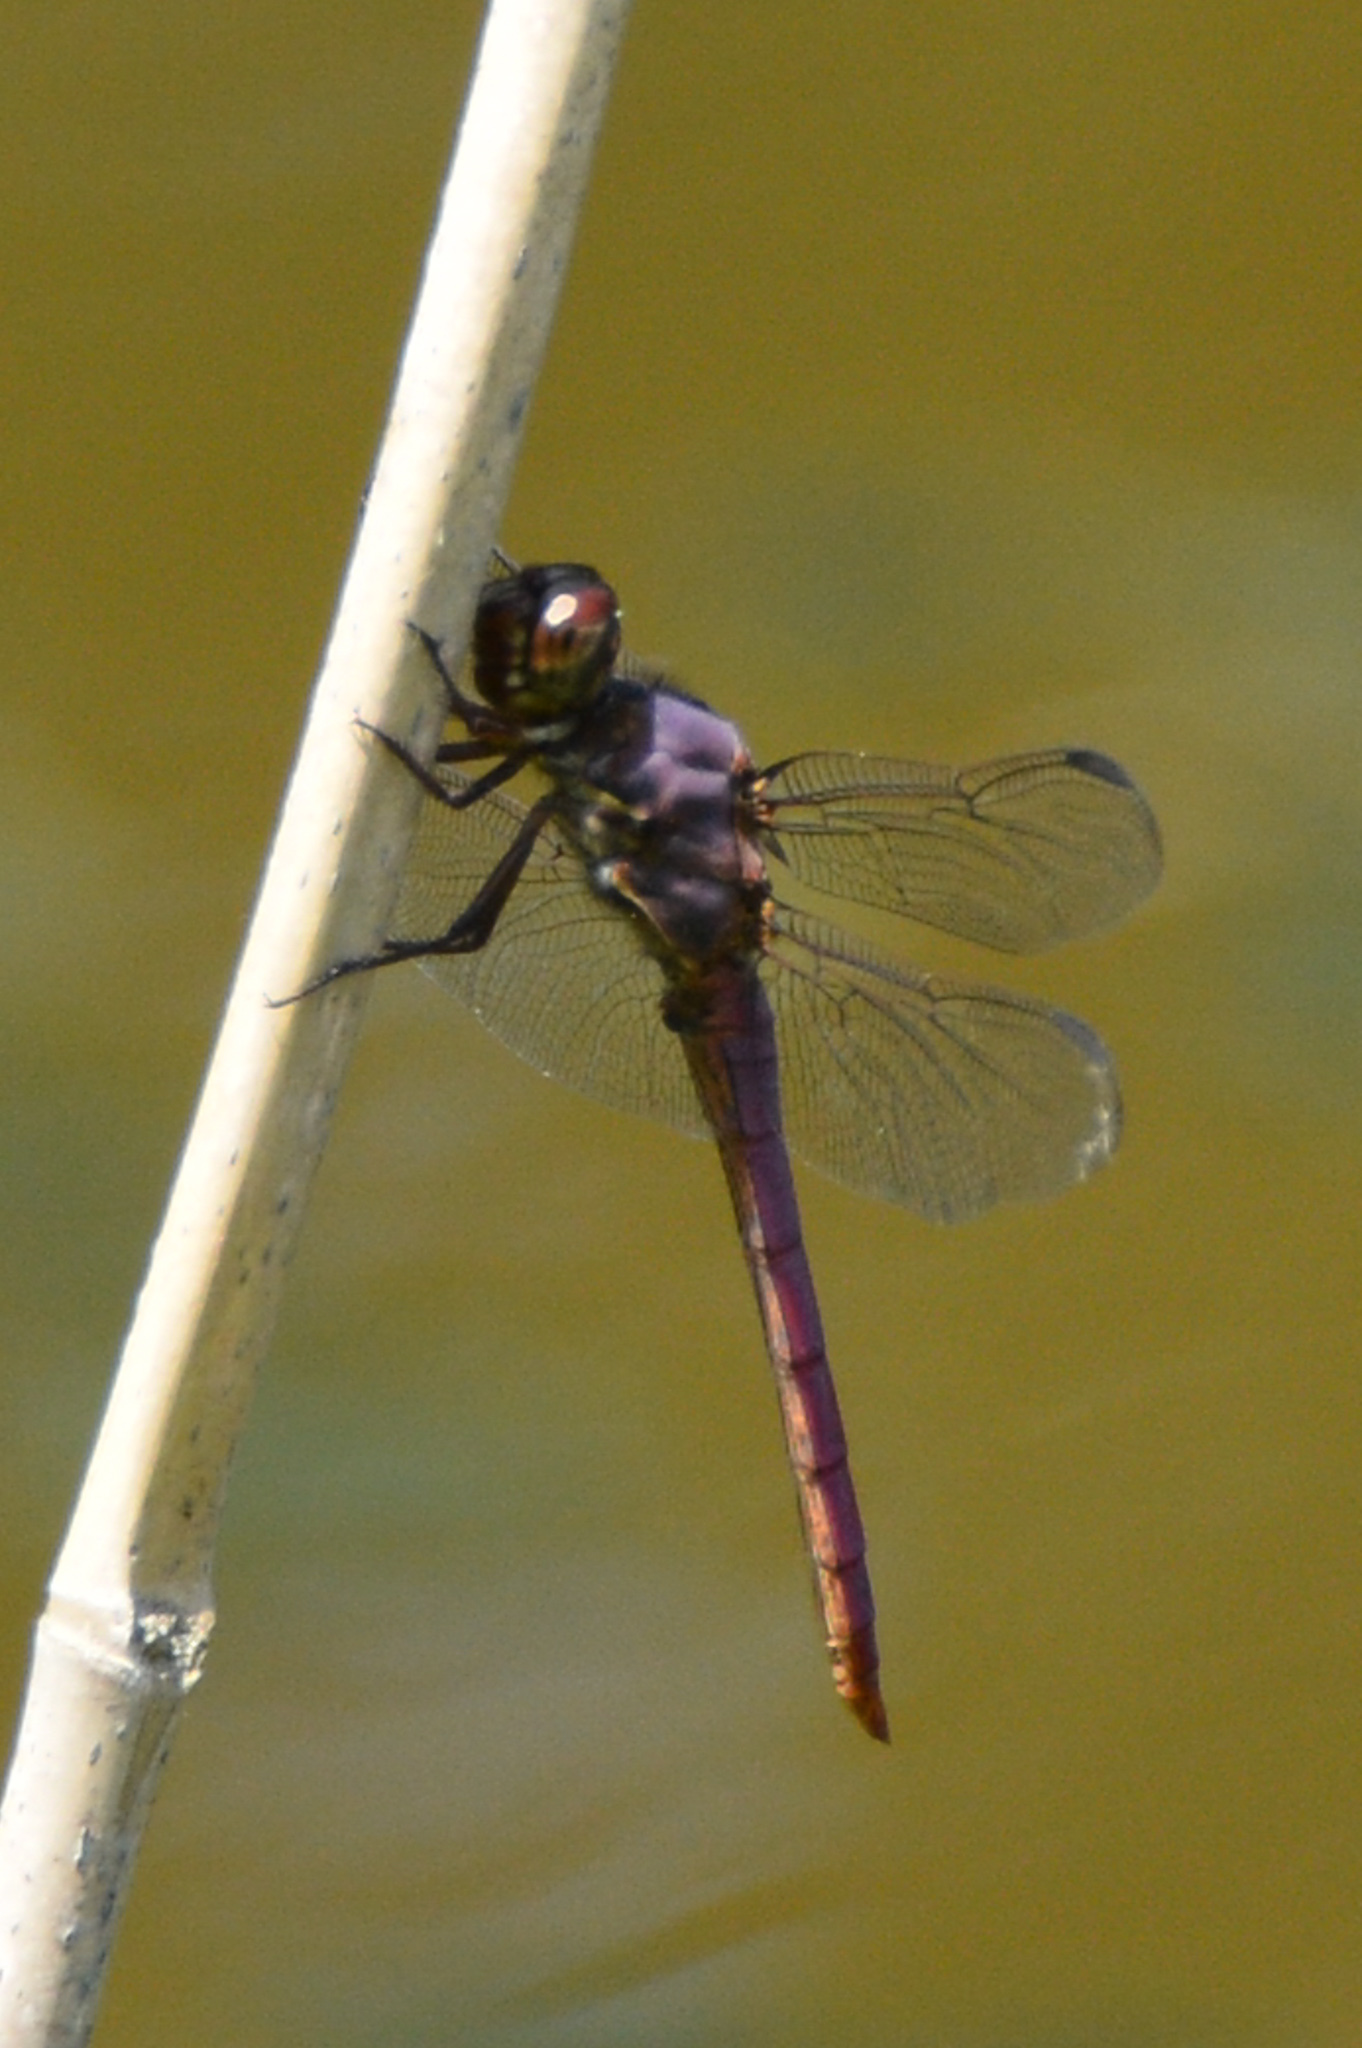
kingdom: Animalia
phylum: Arthropoda
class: Insecta
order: Odonata
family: Libellulidae
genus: Orthemis
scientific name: Orthemis ferruginea
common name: Roseate skimmer
